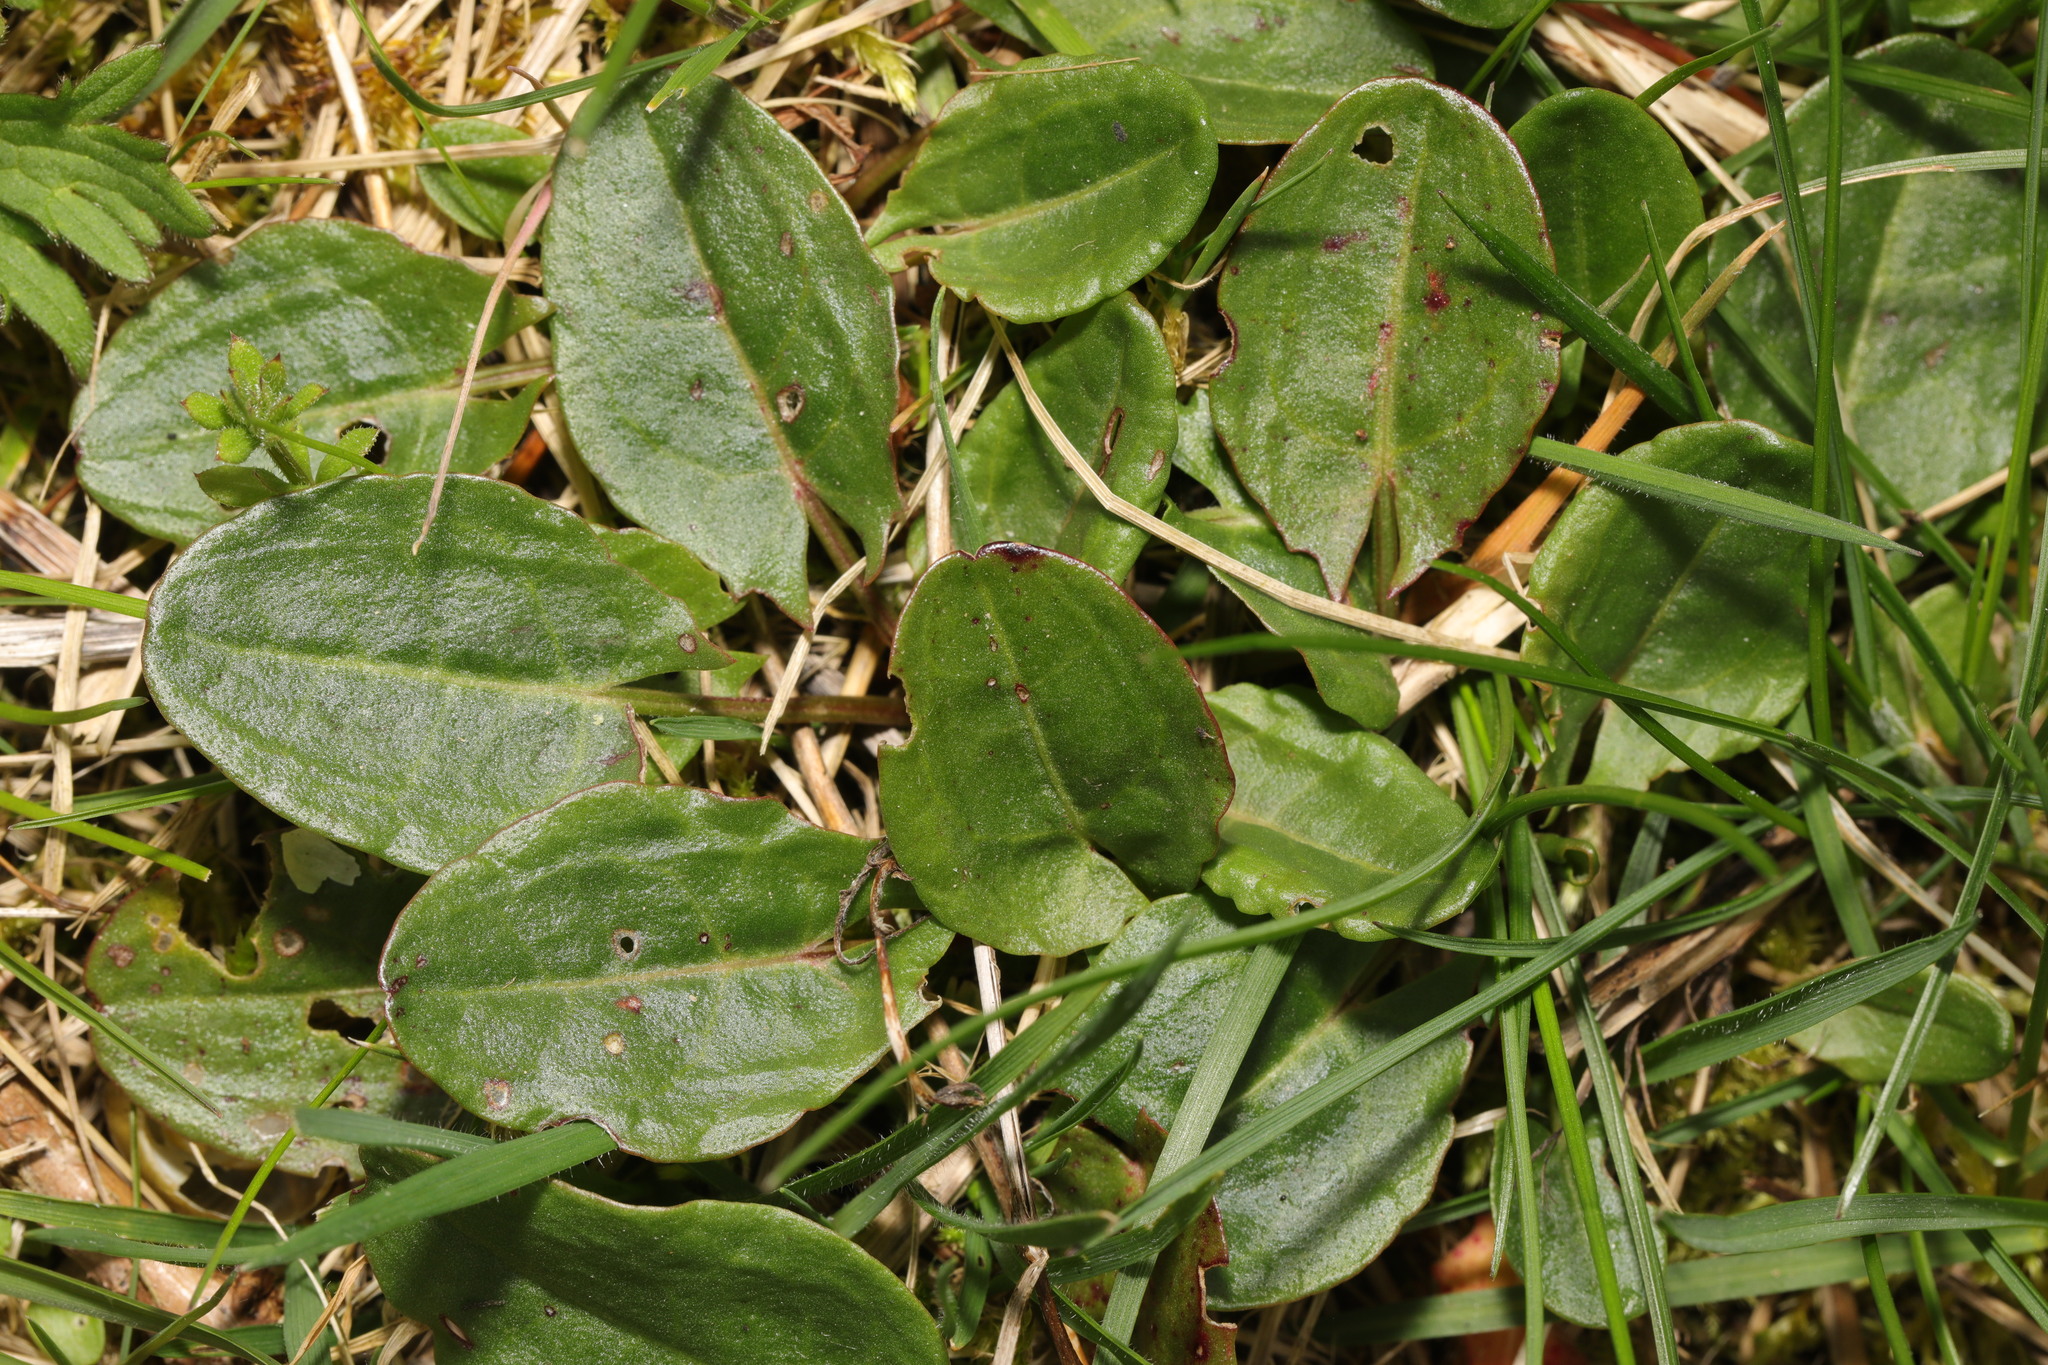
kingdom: Plantae
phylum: Tracheophyta
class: Magnoliopsida
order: Caryophyllales
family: Polygonaceae
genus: Rumex
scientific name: Rumex acetosa
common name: Garden sorrel
